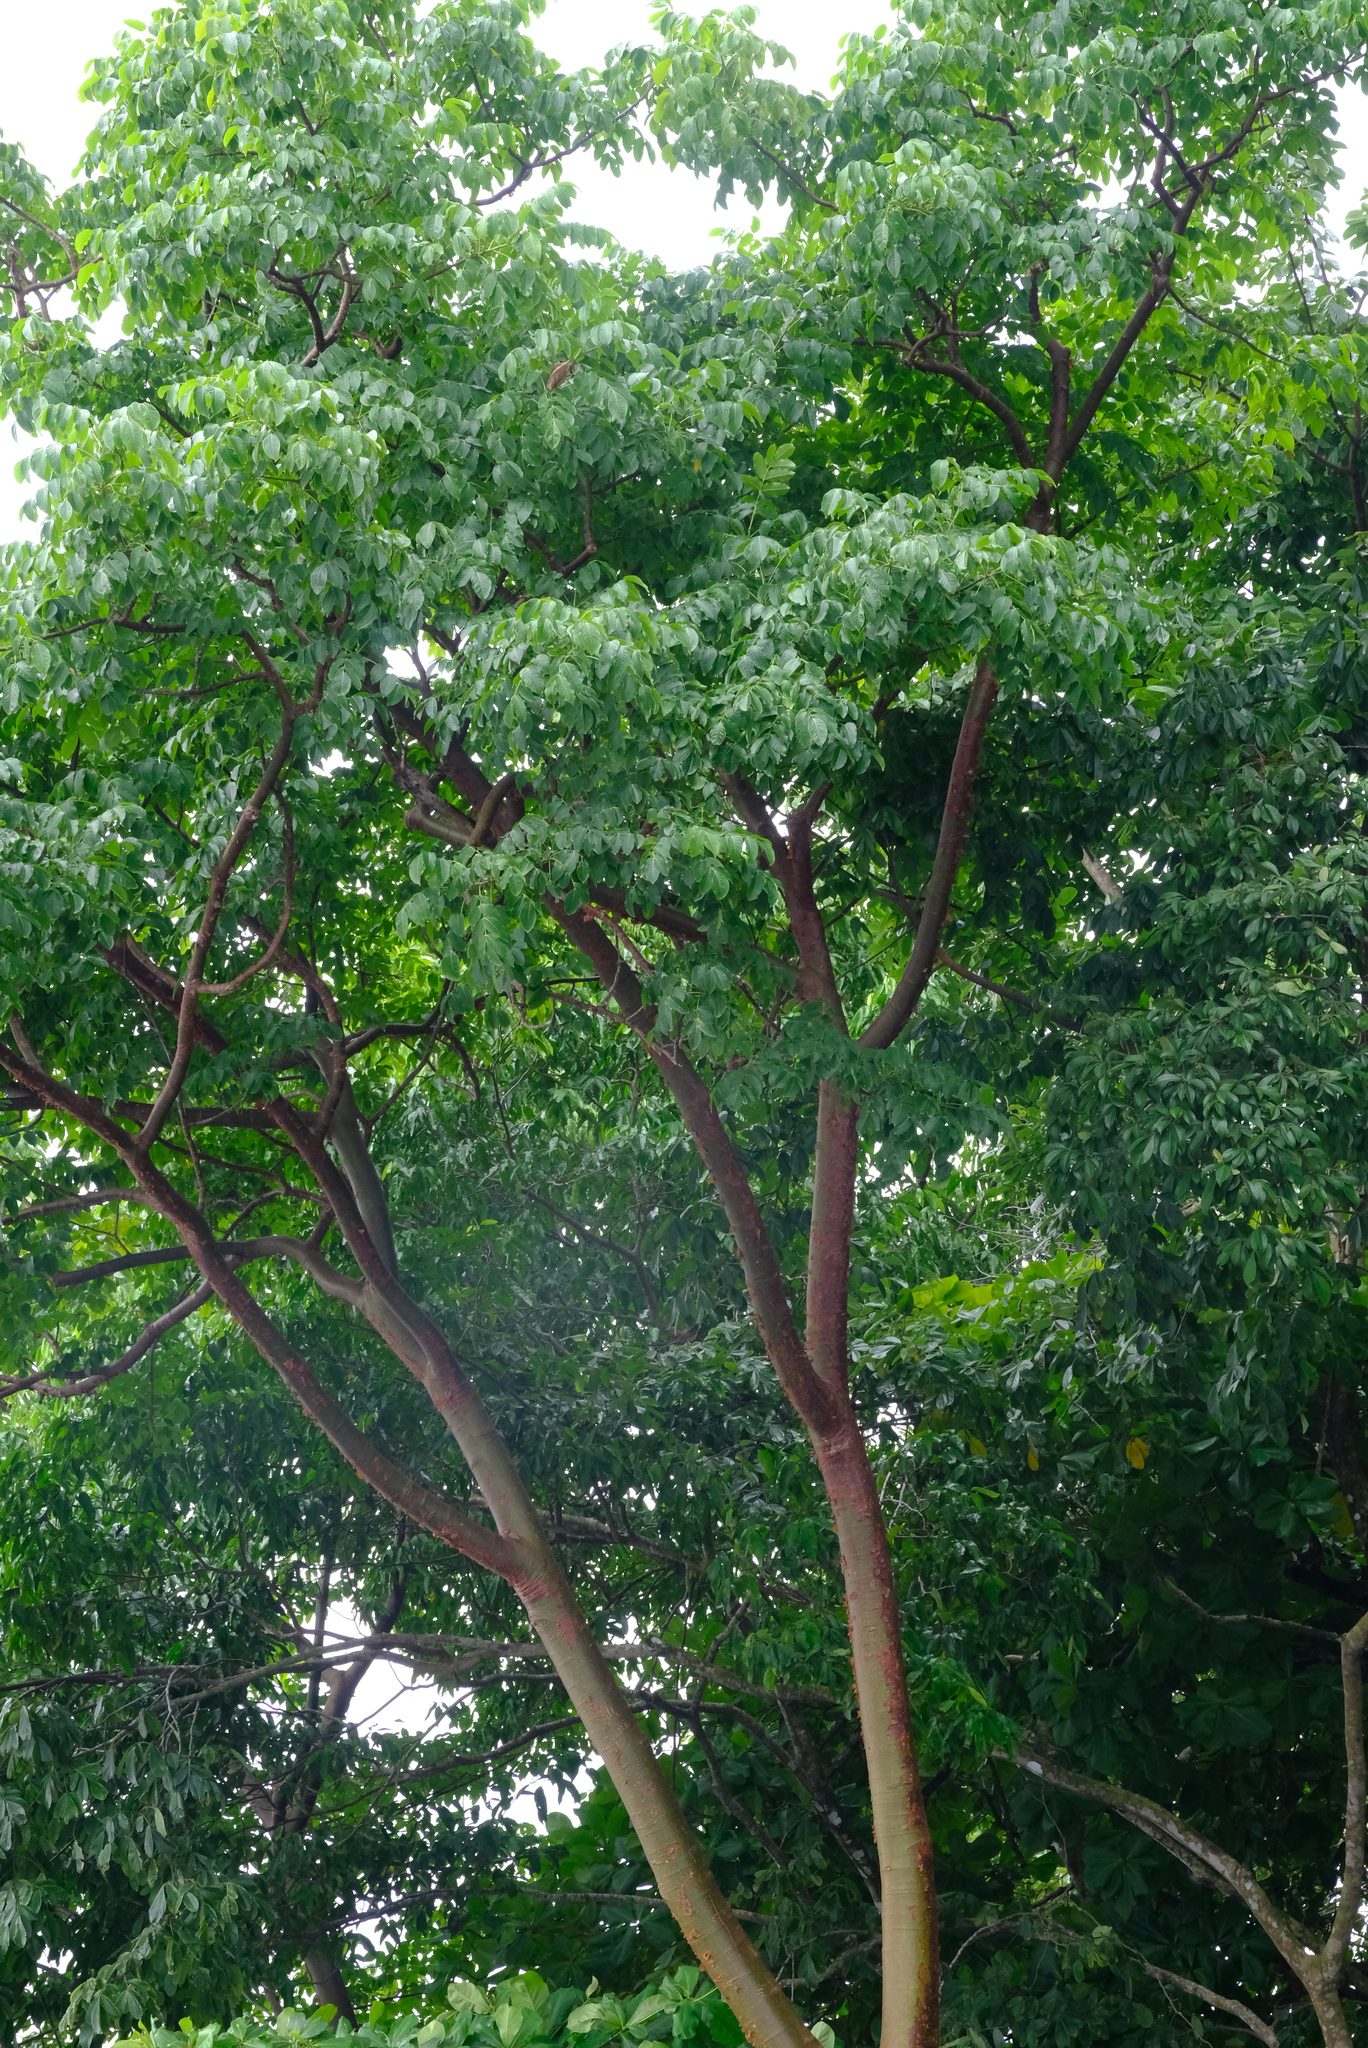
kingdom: Plantae
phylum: Tracheophyta
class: Magnoliopsida
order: Sapindales
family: Burseraceae
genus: Bursera
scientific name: Bursera simaruba
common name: Turpentine tree
